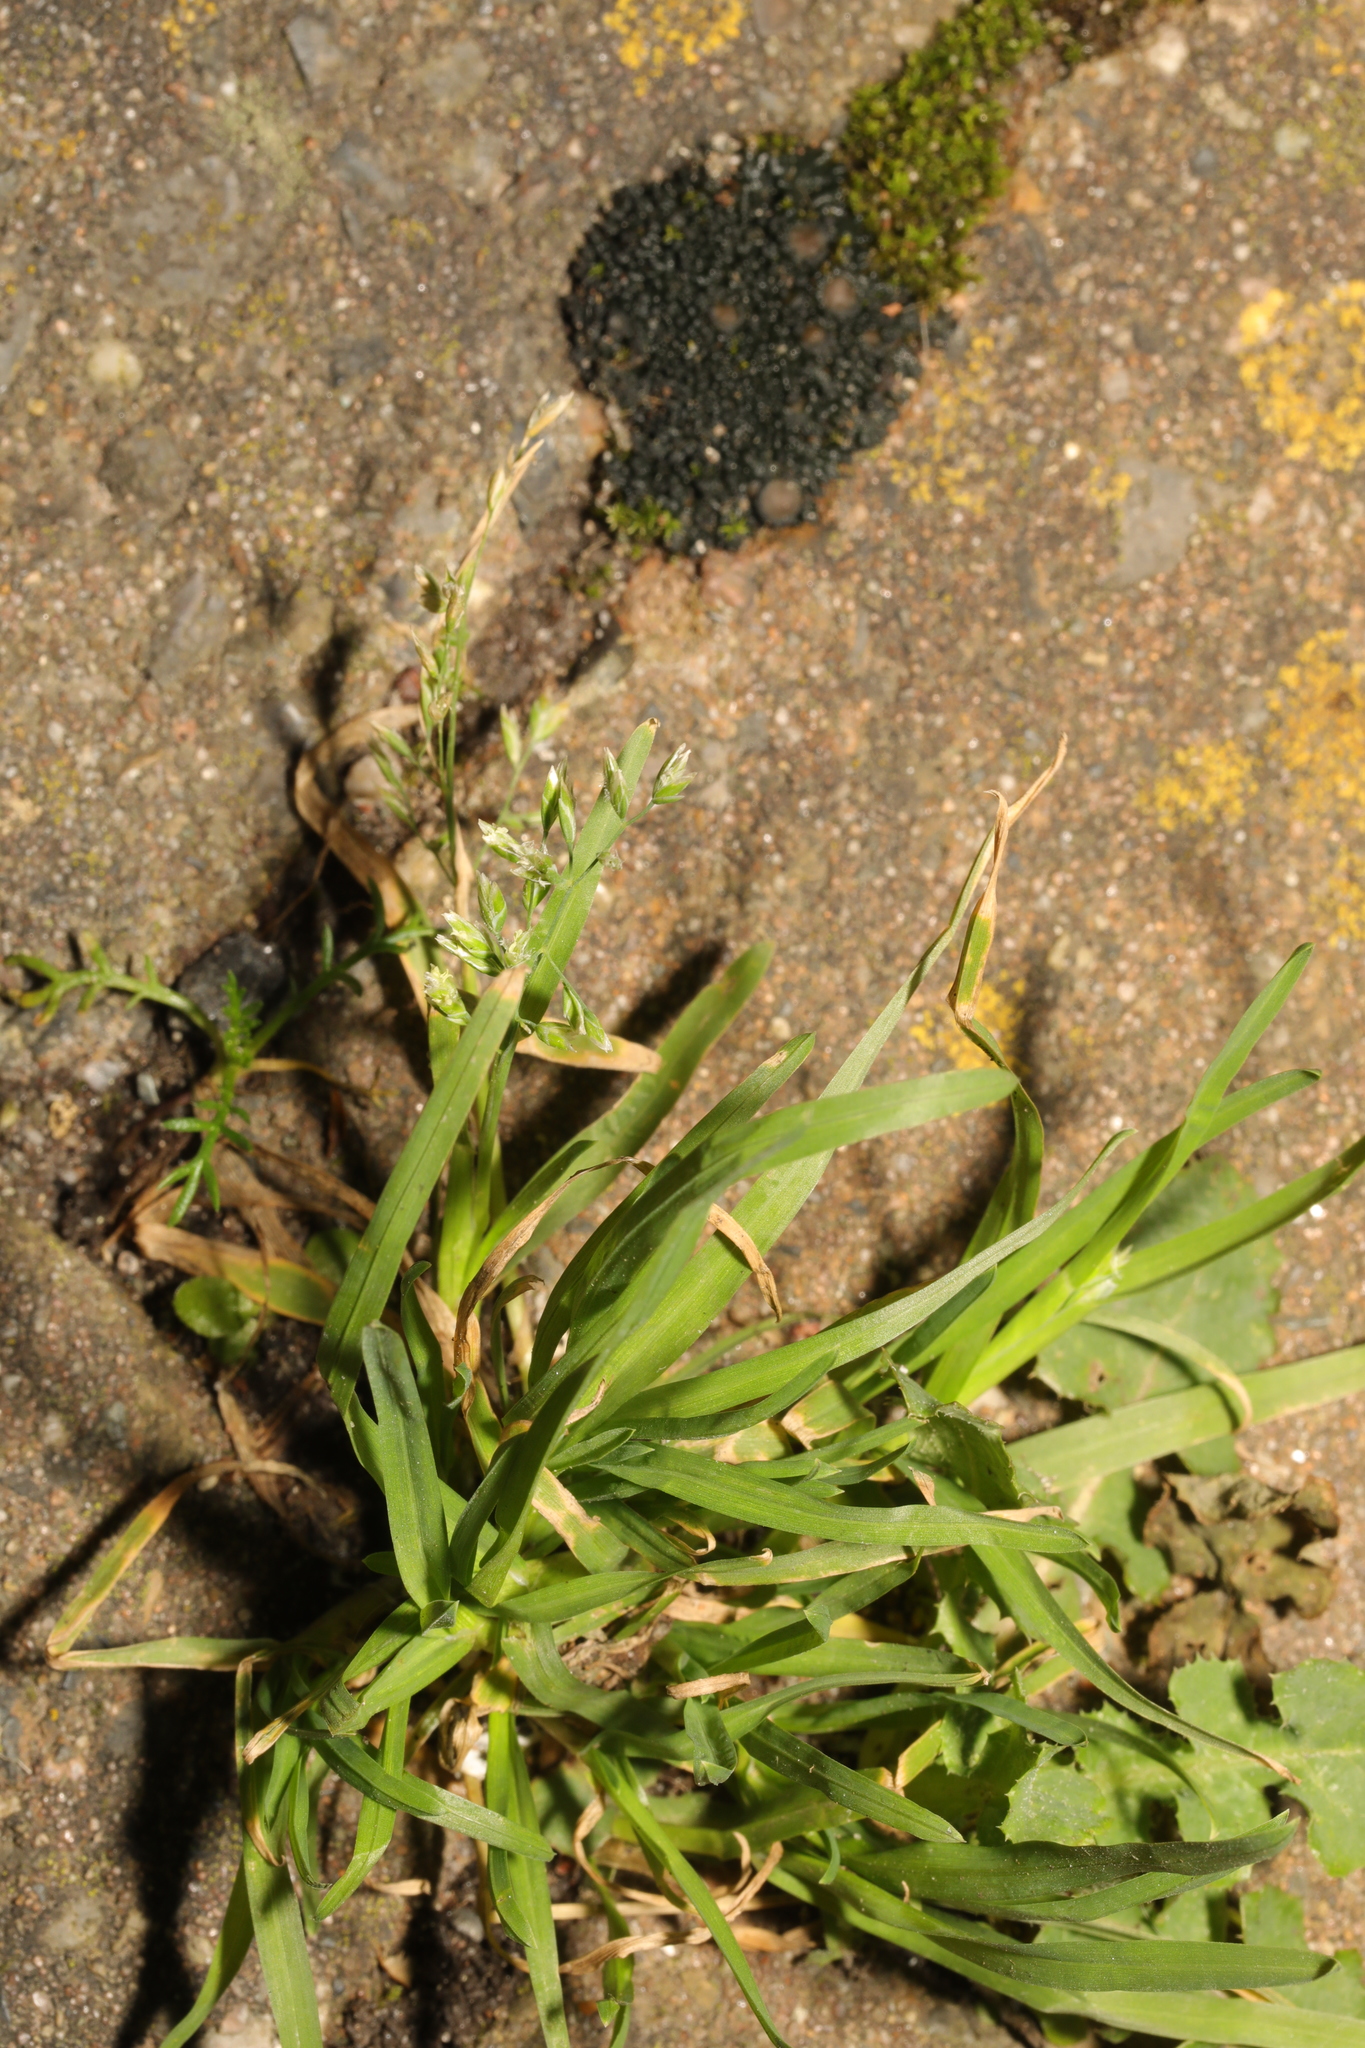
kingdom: Plantae
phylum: Tracheophyta
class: Liliopsida
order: Poales
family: Poaceae
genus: Poa
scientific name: Poa annua
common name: Annual bluegrass
